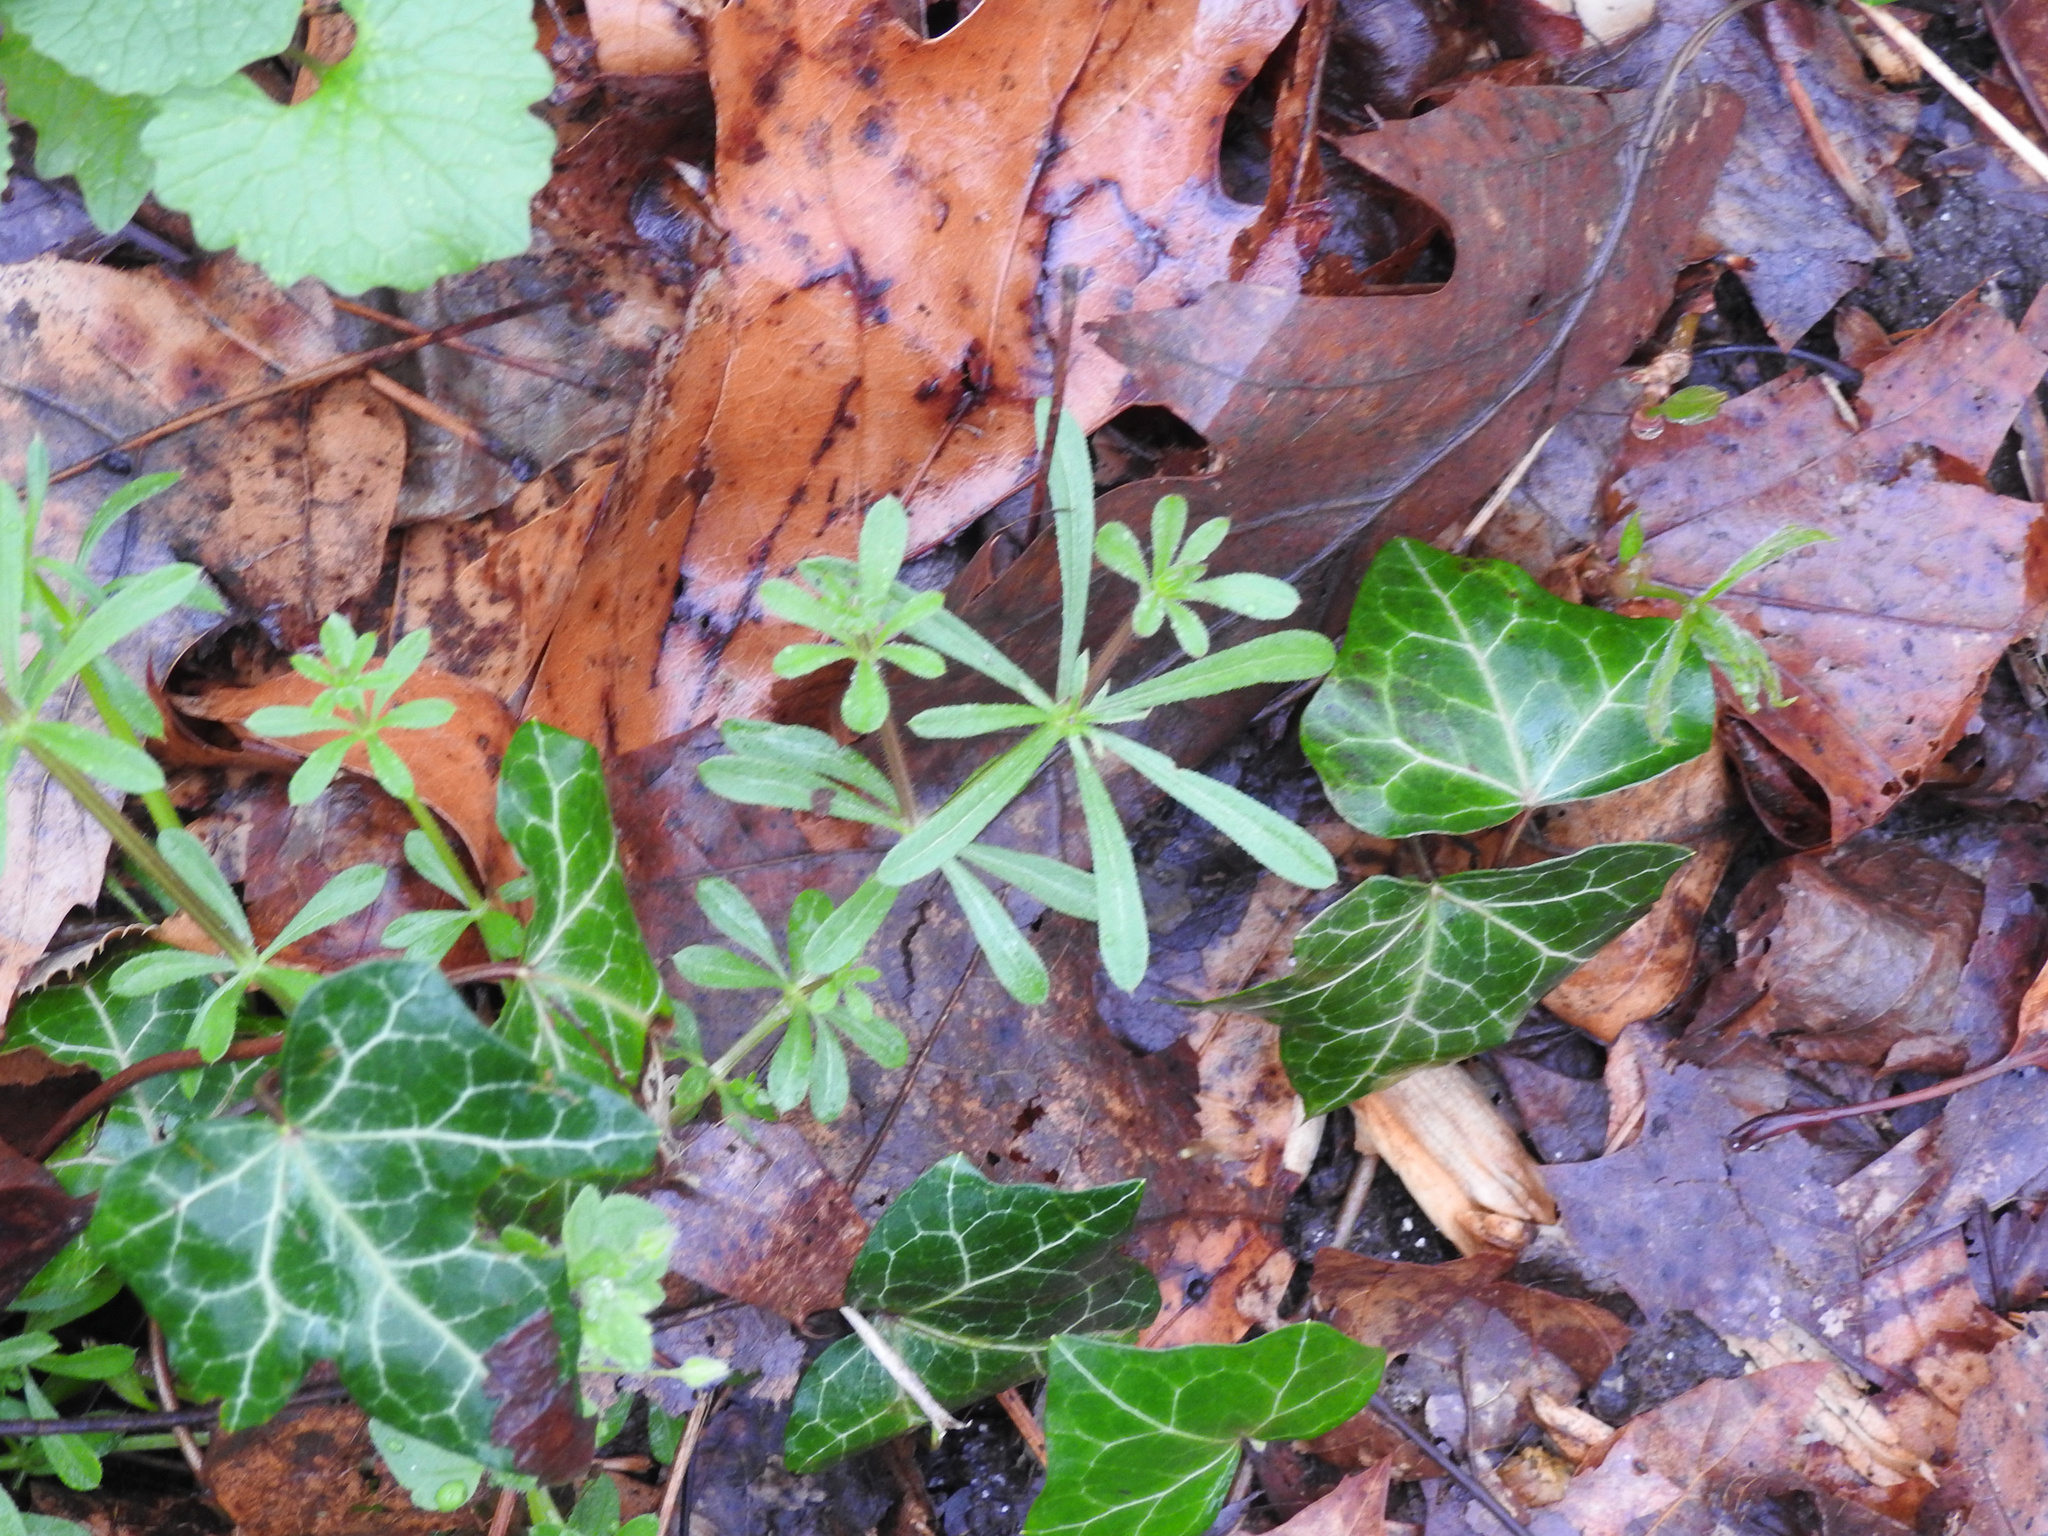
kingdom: Plantae
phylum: Tracheophyta
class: Magnoliopsida
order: Gentianales
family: Rubiaceae
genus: Galium
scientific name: Galium aparine
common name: Cleavers
